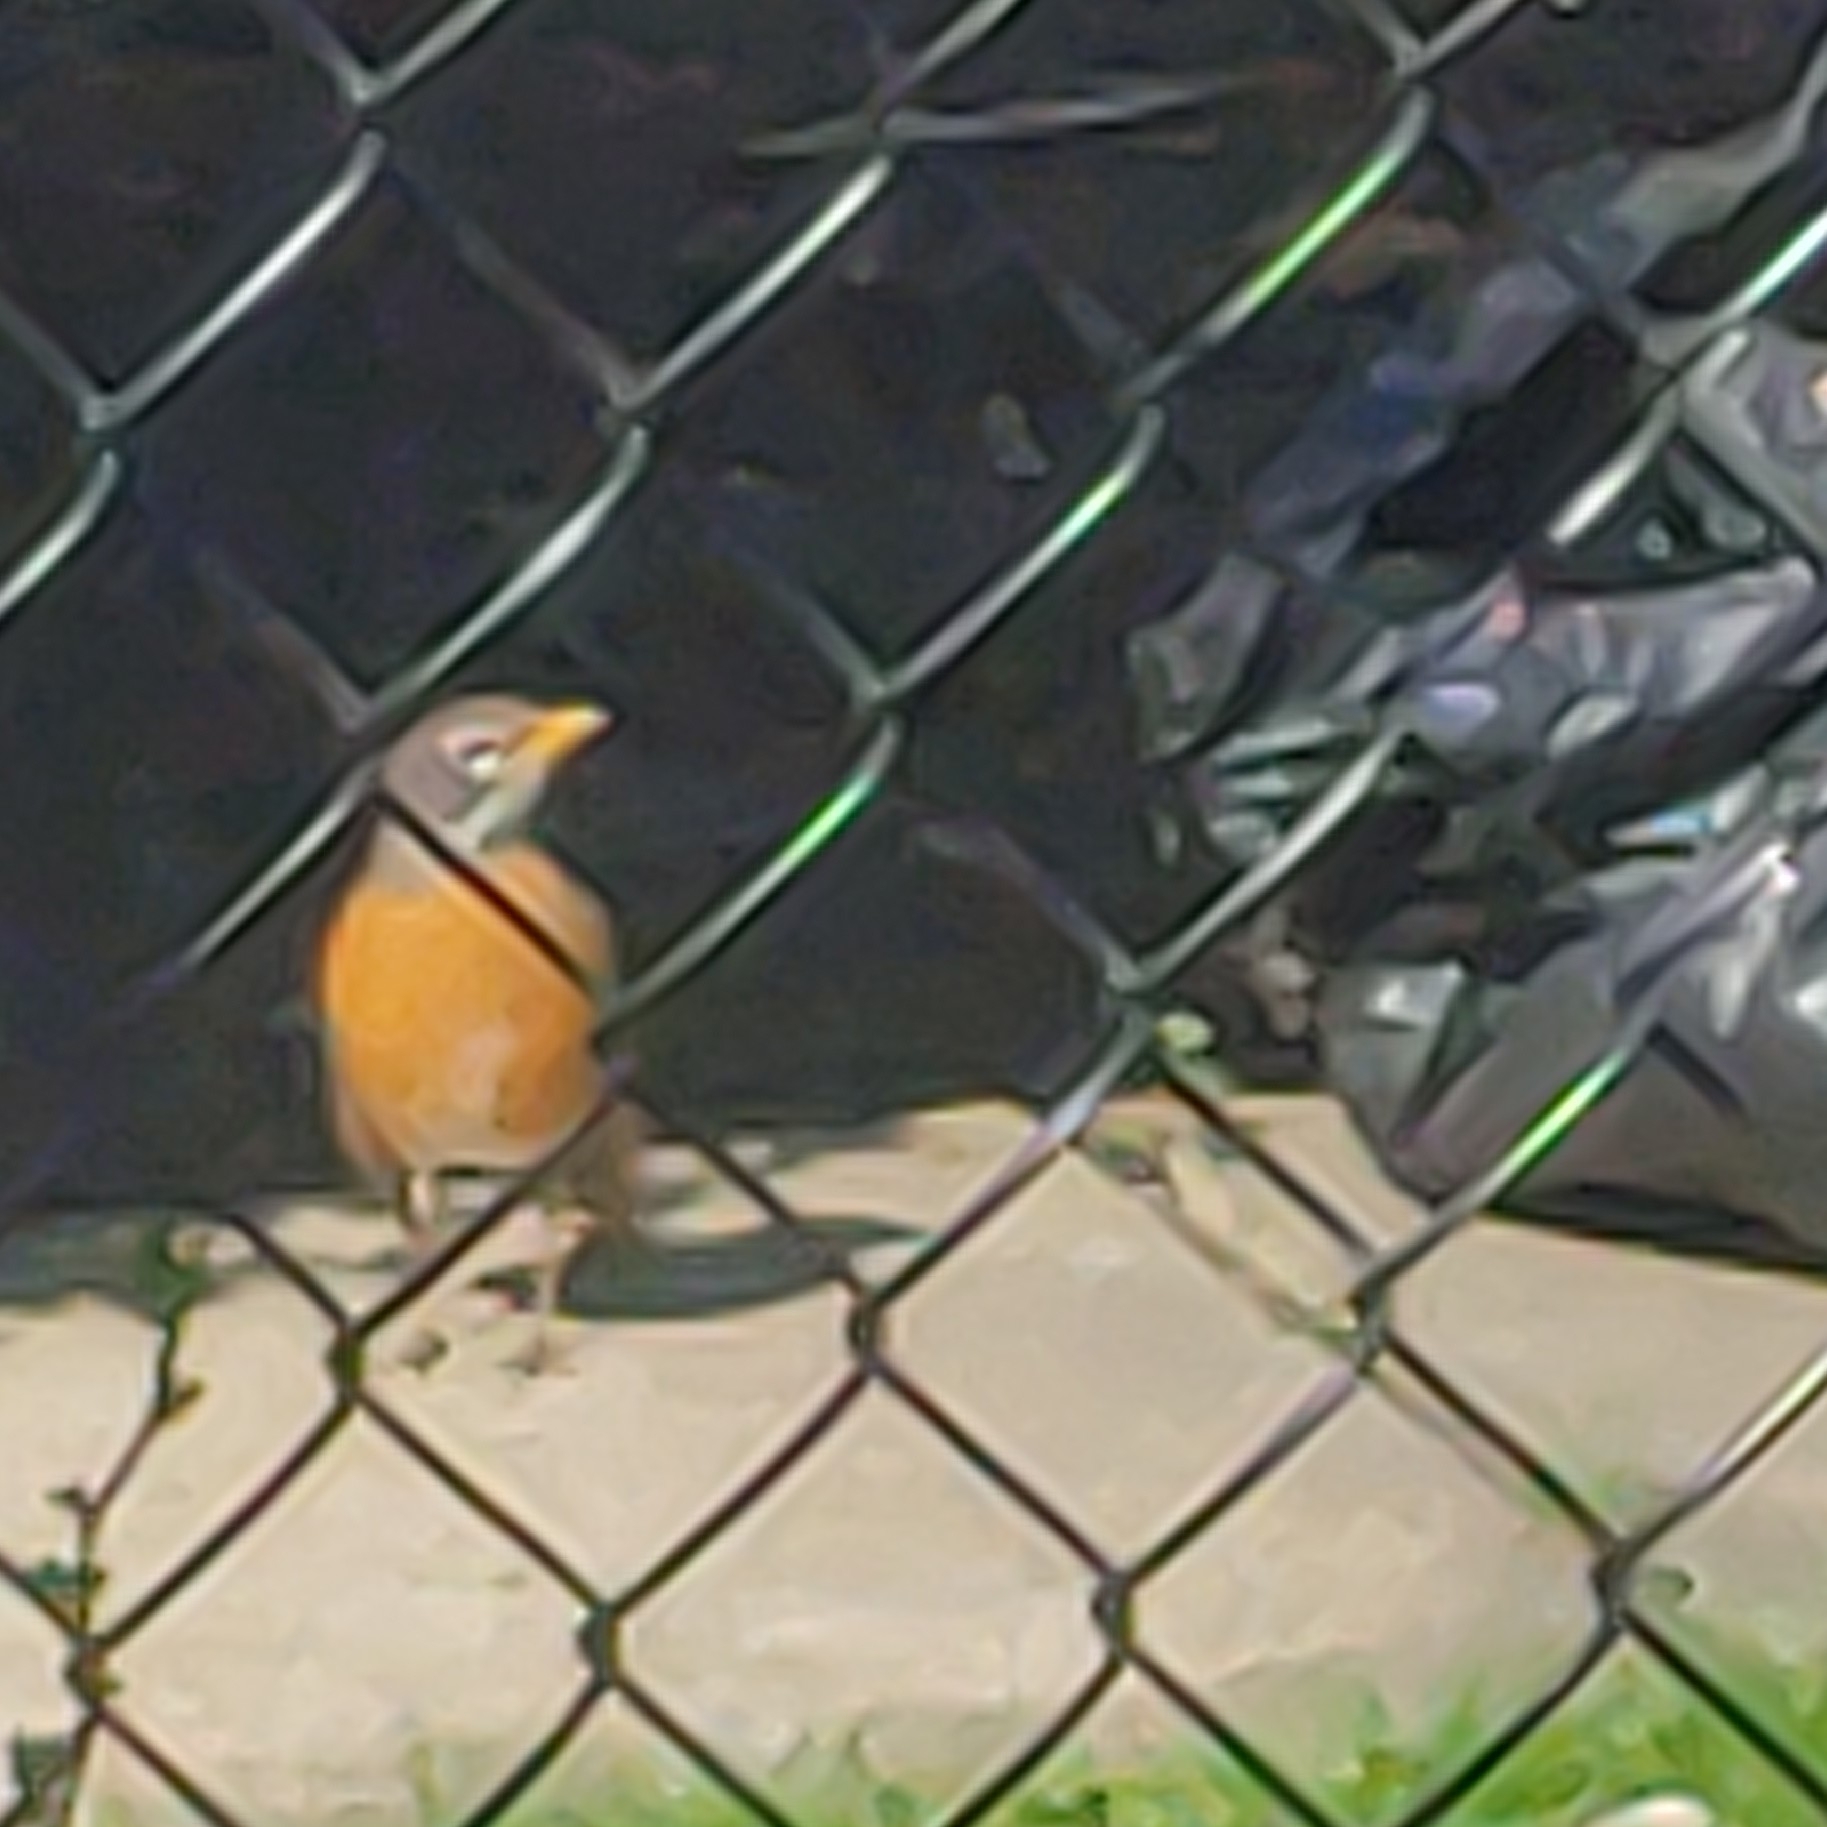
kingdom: Animalia
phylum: Chordata
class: Aves
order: Passeriformes
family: Turdidae
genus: Turdus
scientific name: Turdus migratorius
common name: American robin
